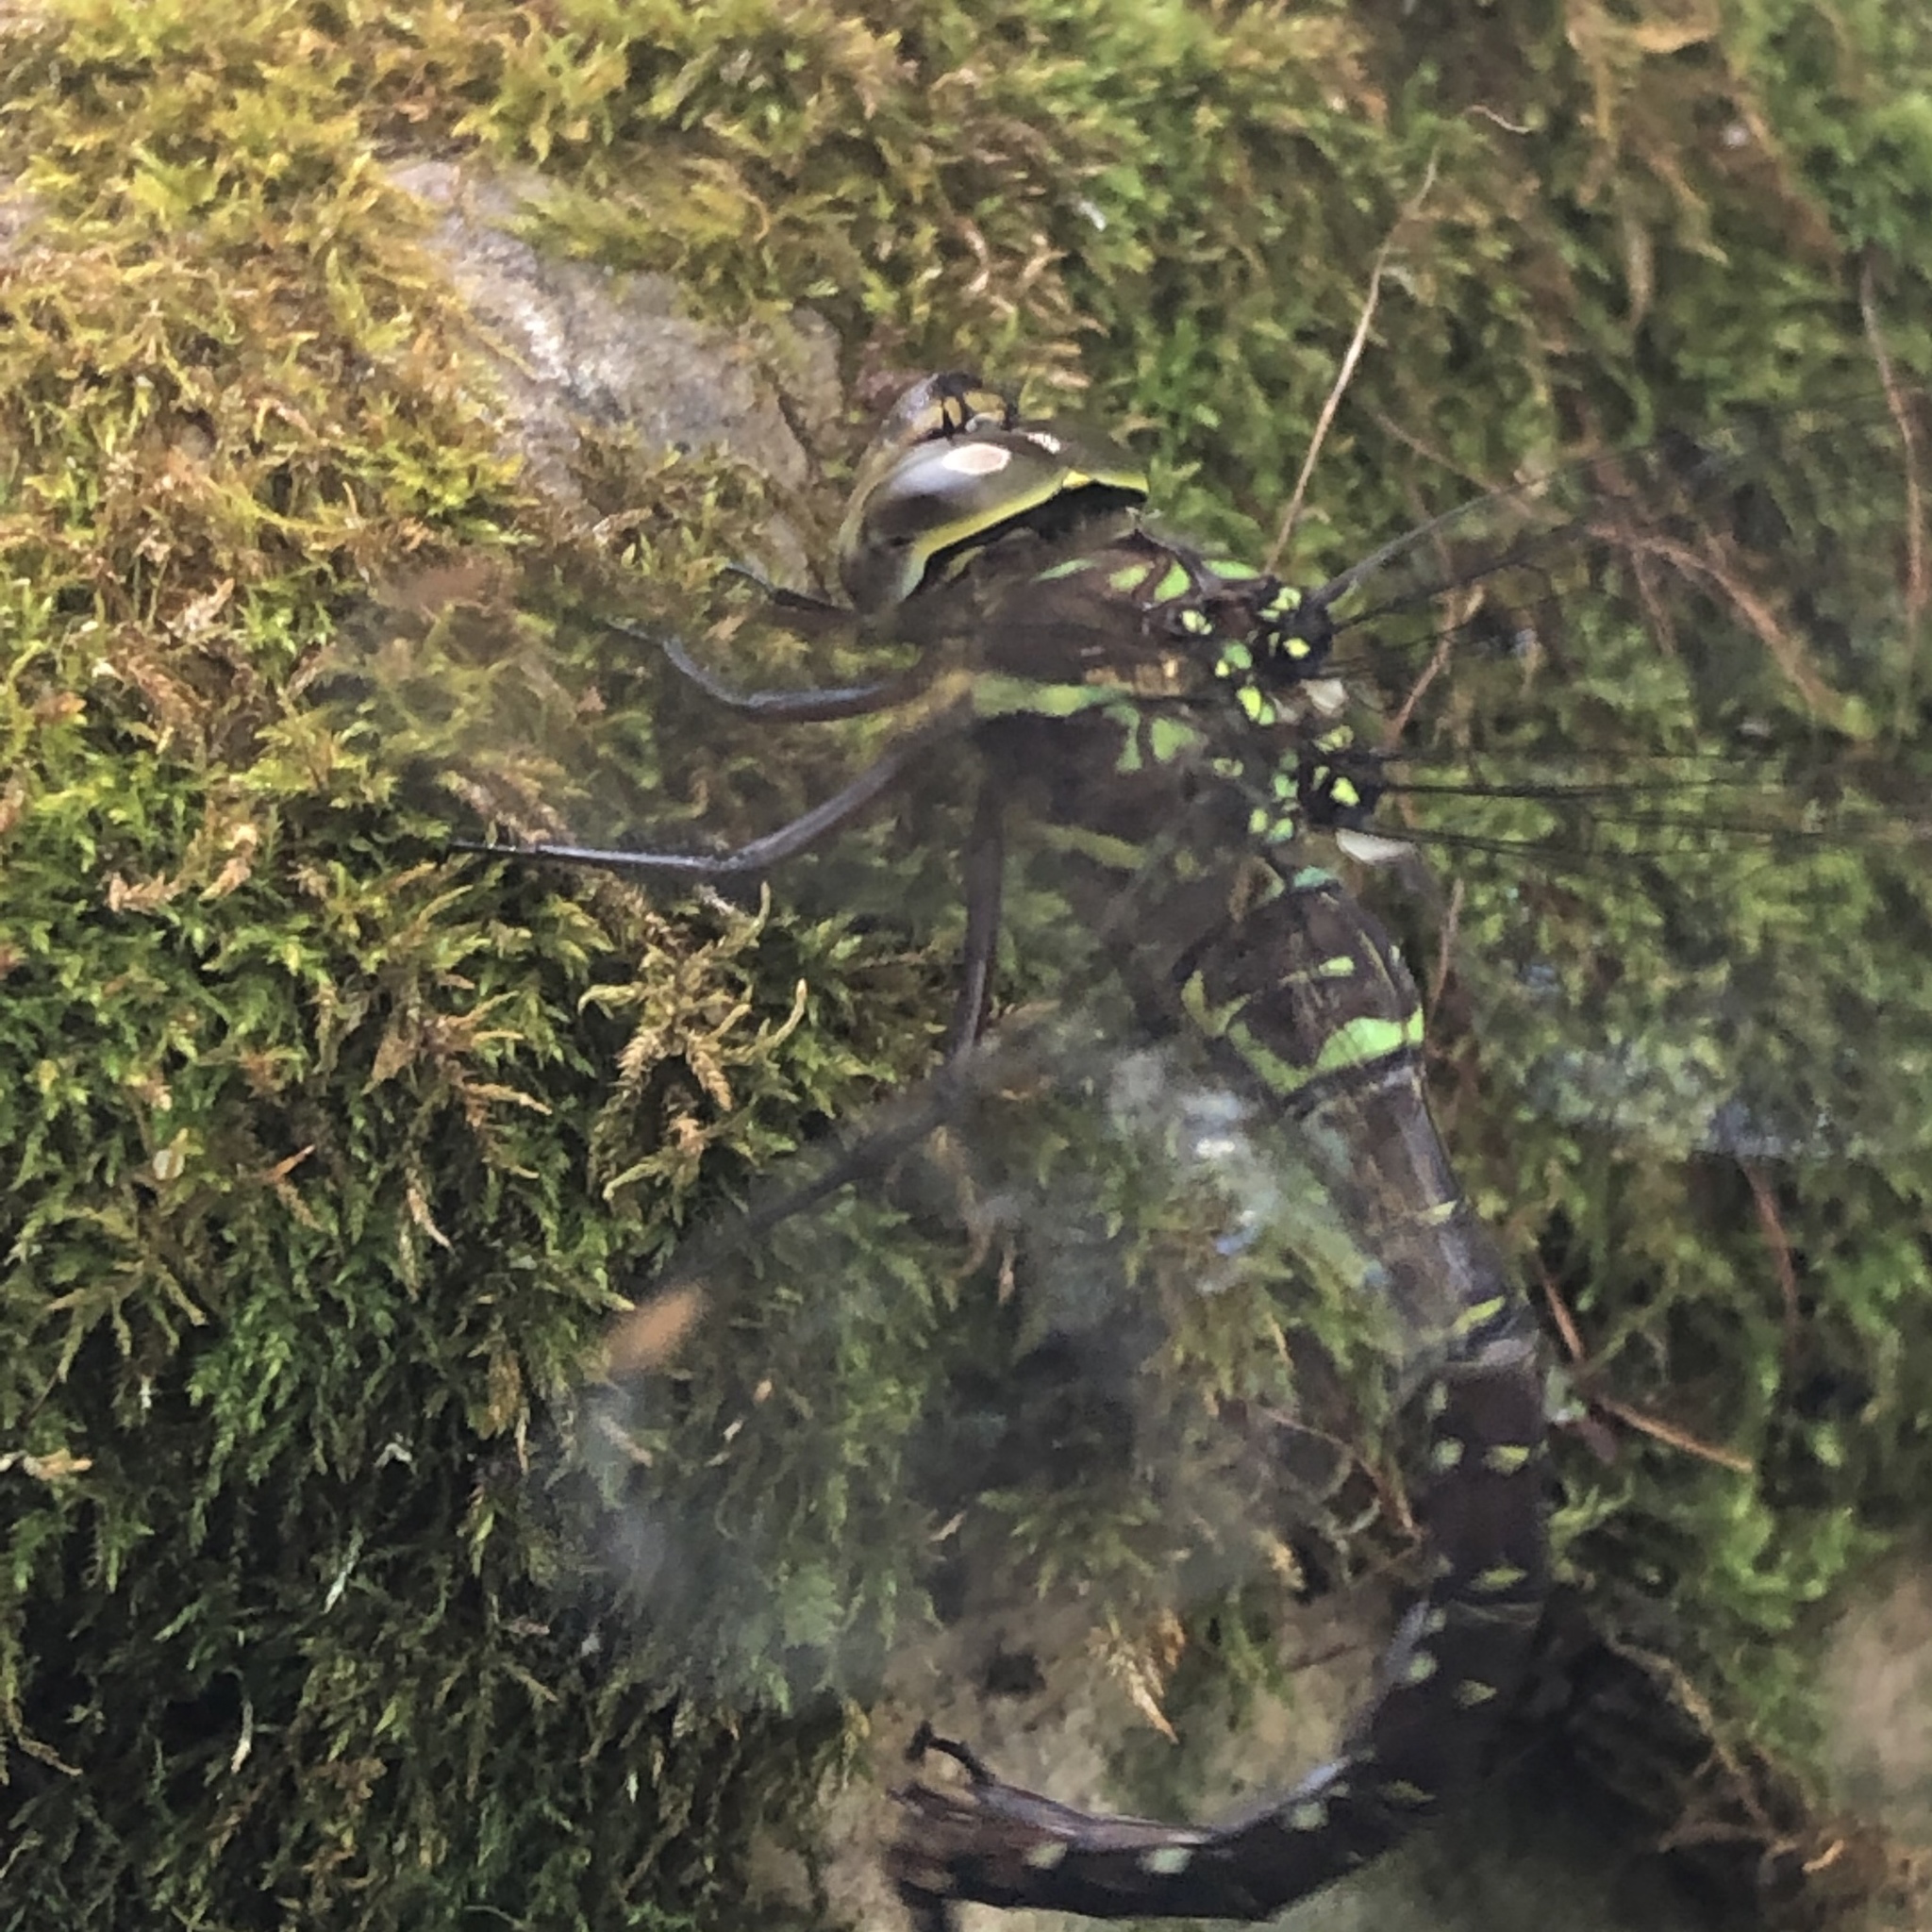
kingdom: Animalia
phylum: Arthropoda
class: Insecta
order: Odonata
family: Aeshnidae
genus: Aeshna
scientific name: Aeshna umbrosa
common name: Shadow darner
